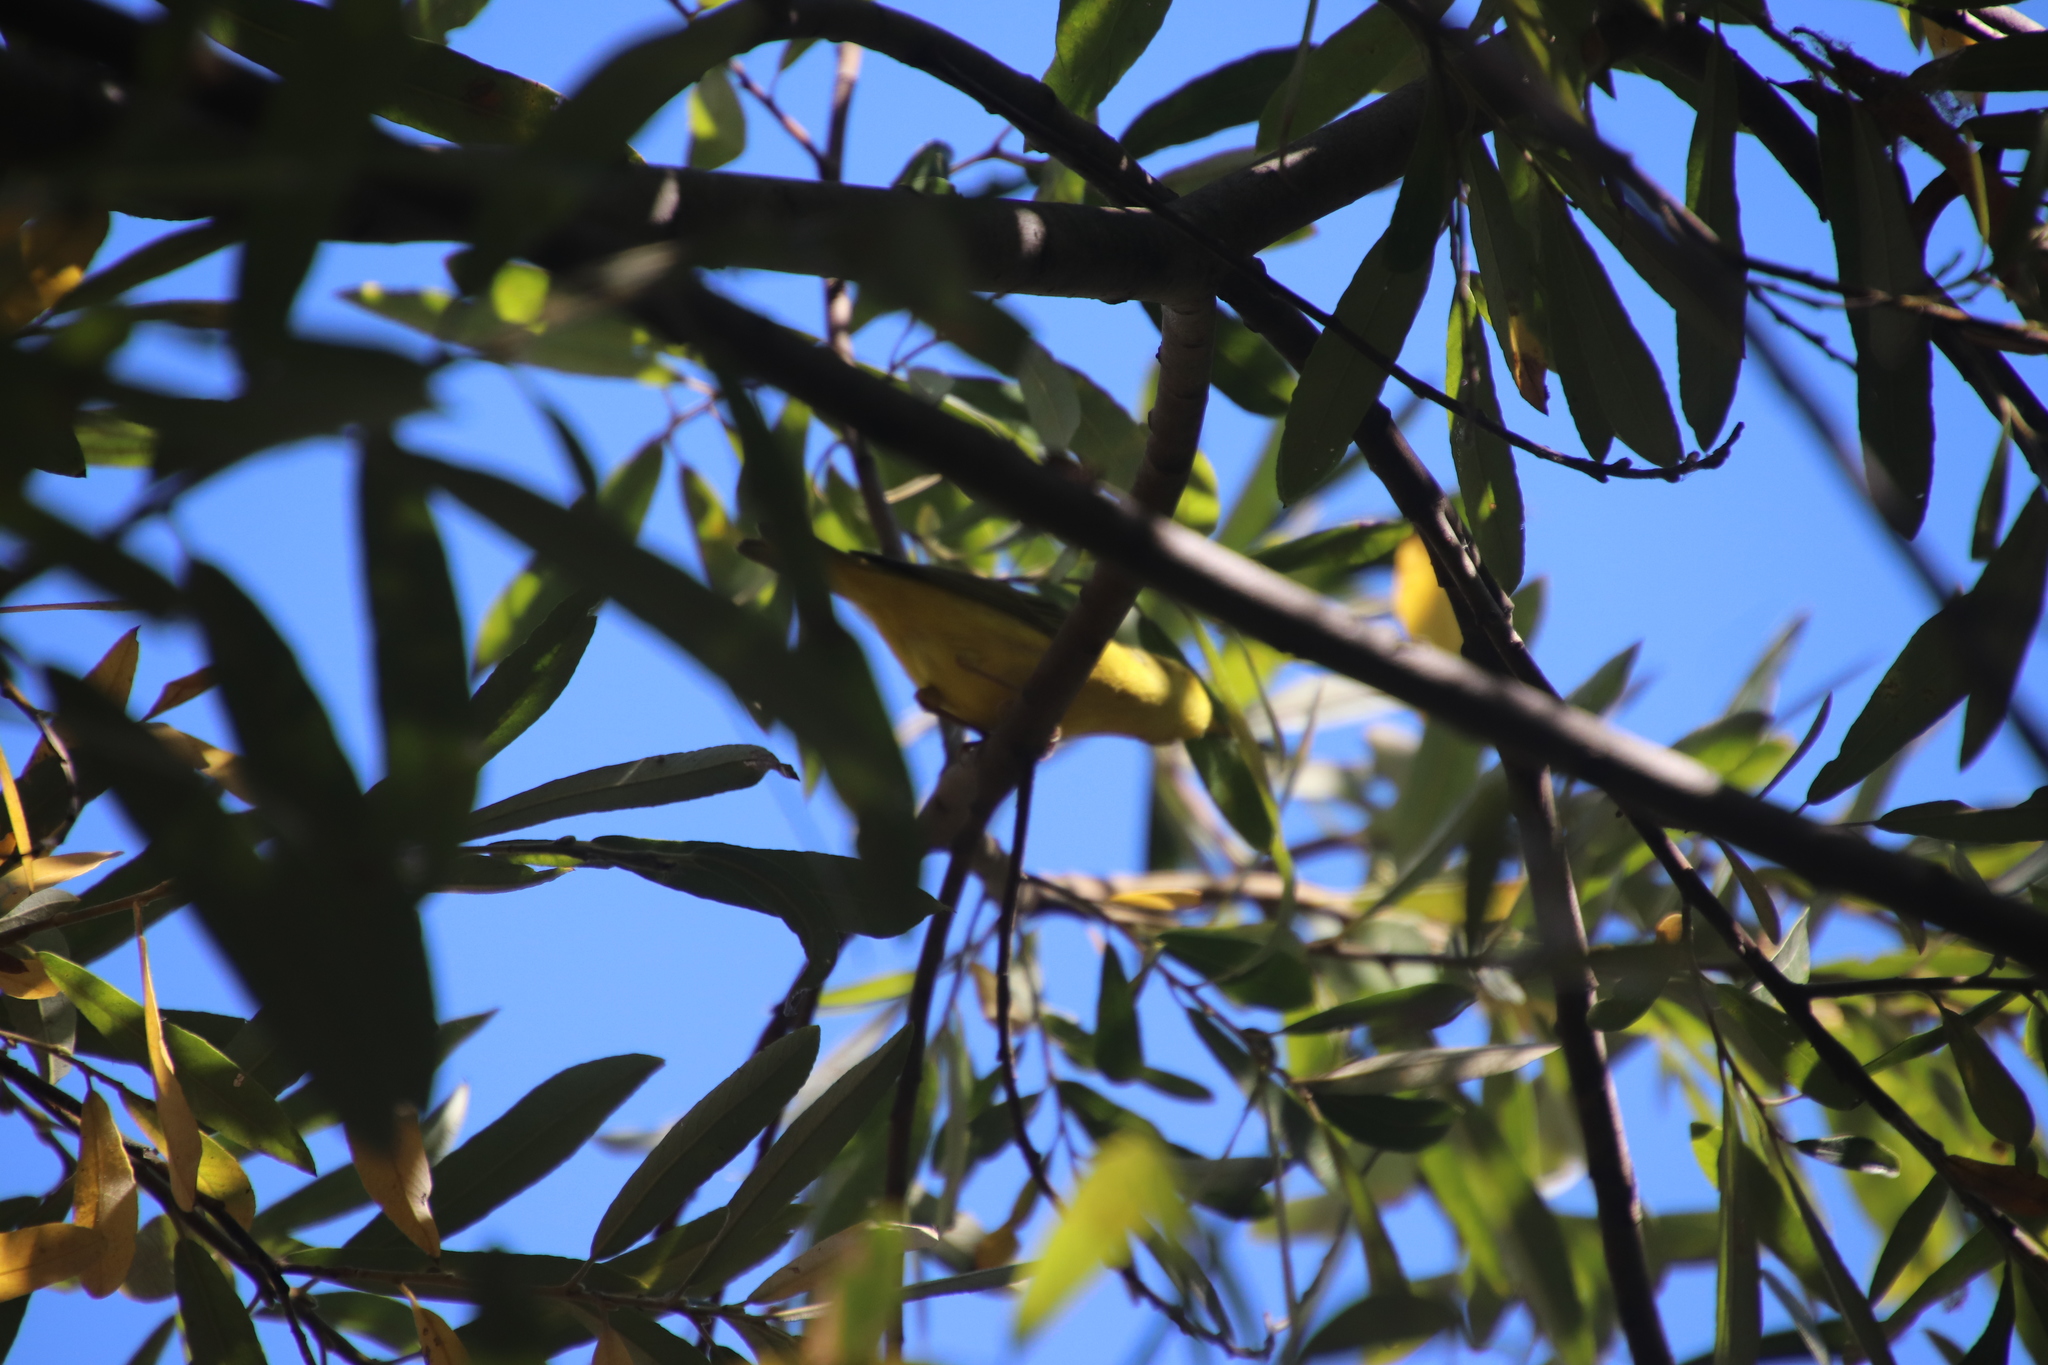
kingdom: Animalia
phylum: Chordata
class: Aves
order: Passeriformes
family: Parulidae
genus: Cardellina
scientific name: Cardellina pusilla
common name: Wilson's warbler
